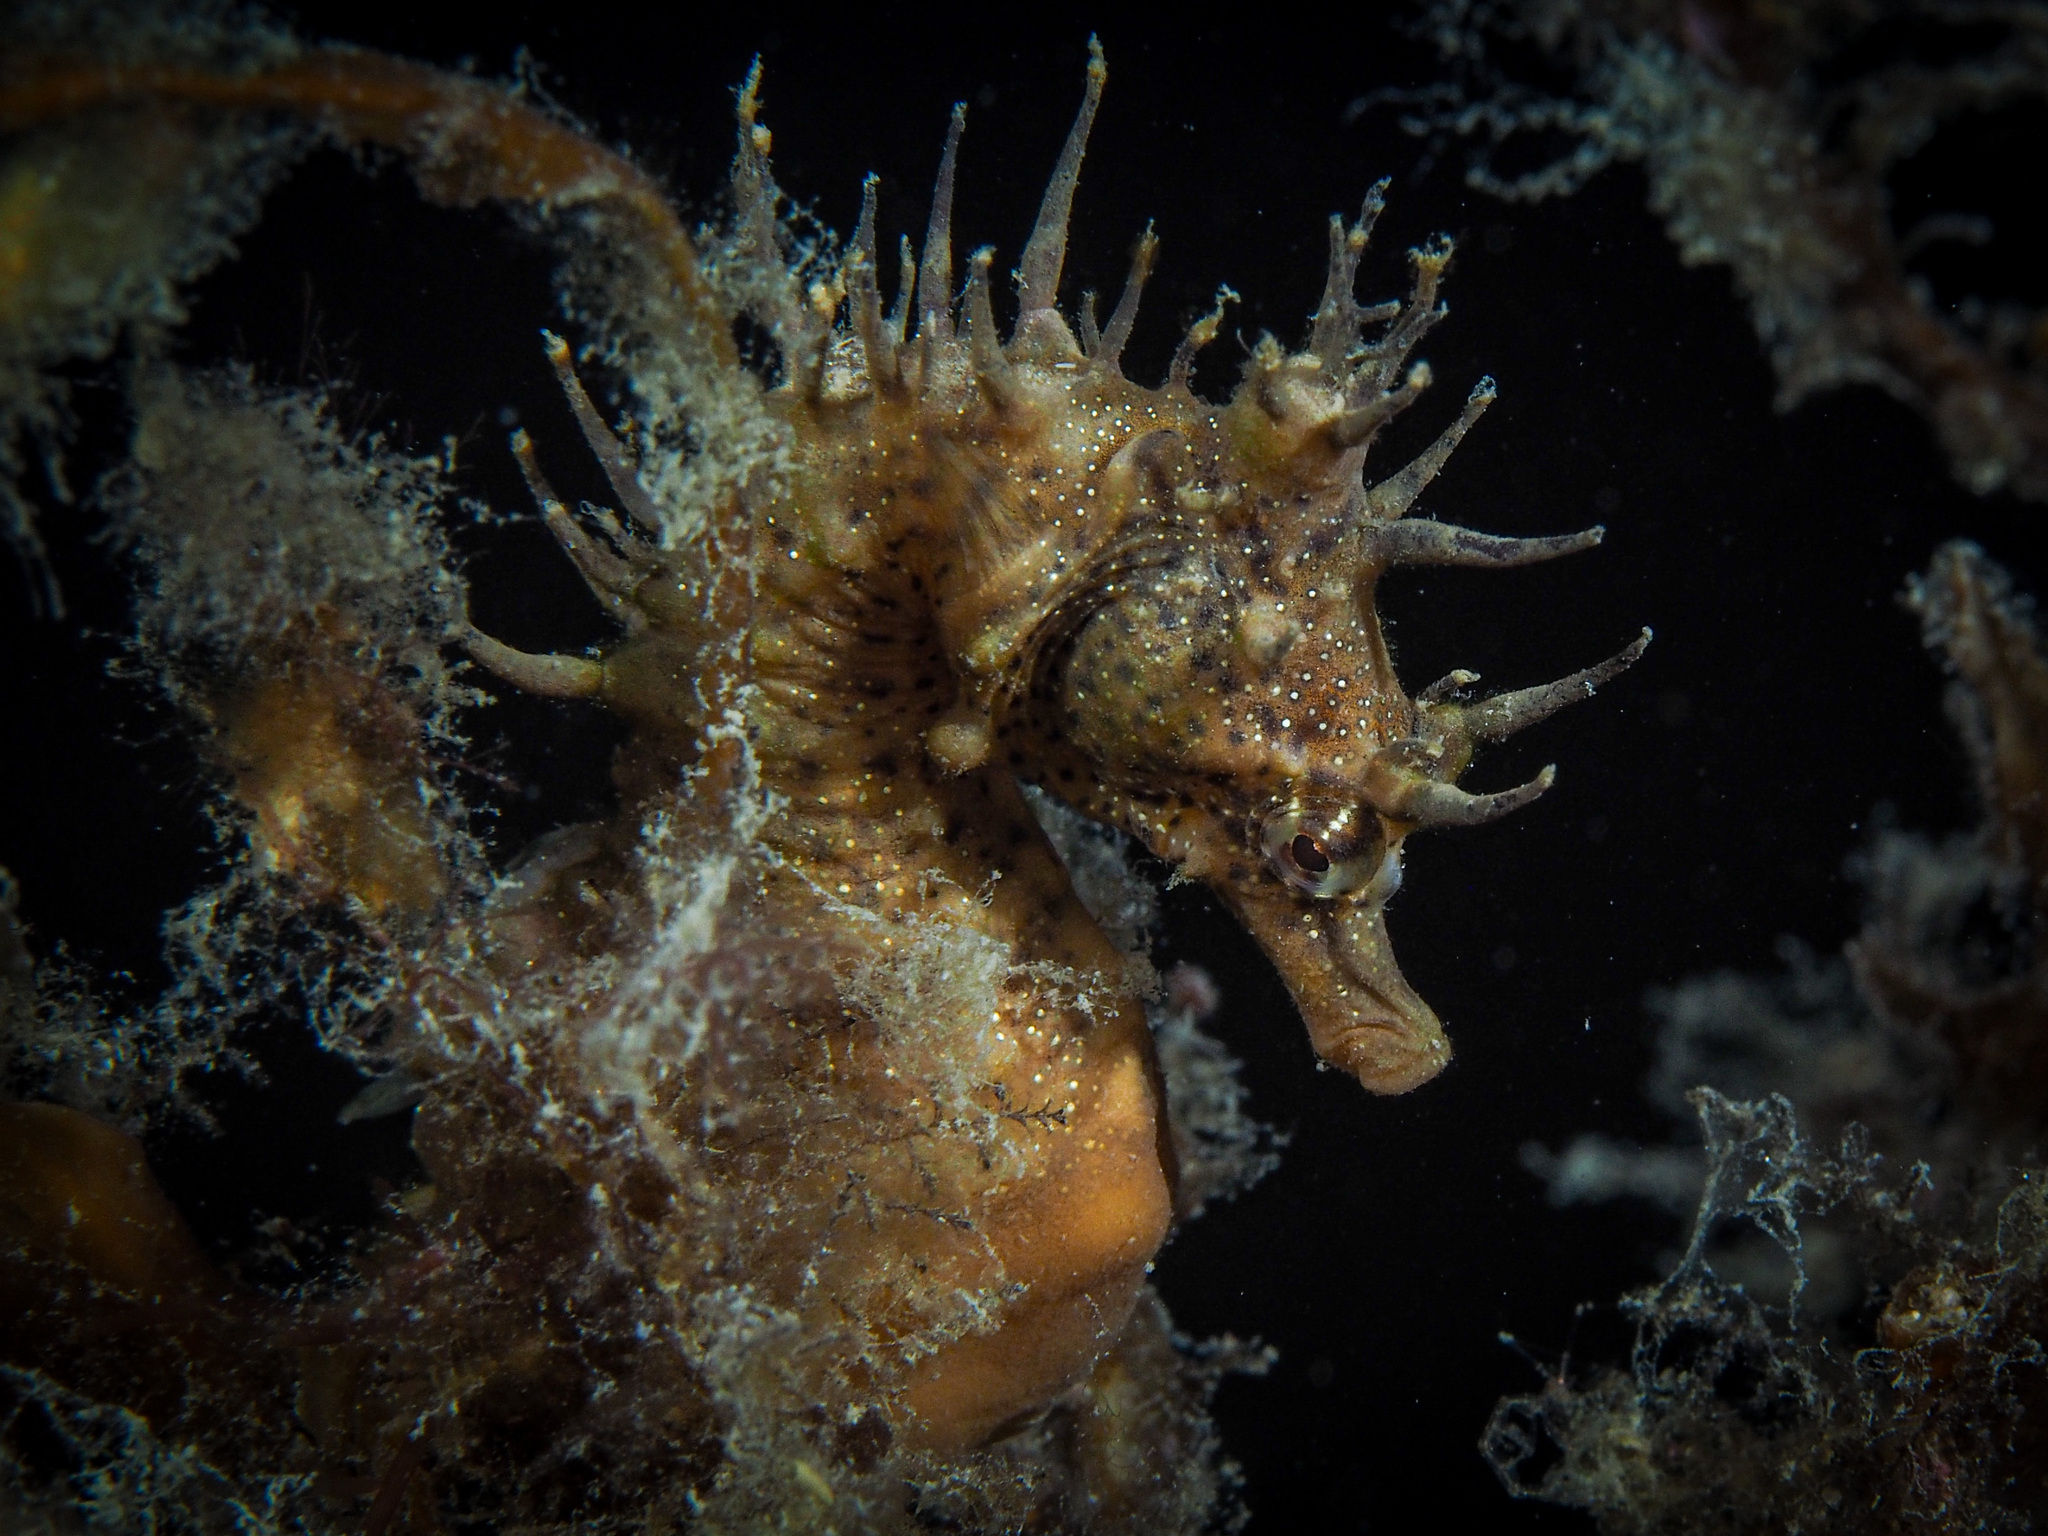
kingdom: Animalia
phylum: Chordata
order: Syngnathiformes
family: Syngnathidae
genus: Hippocampus
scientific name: Hippocampus breviceps
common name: Knobby seahorse
